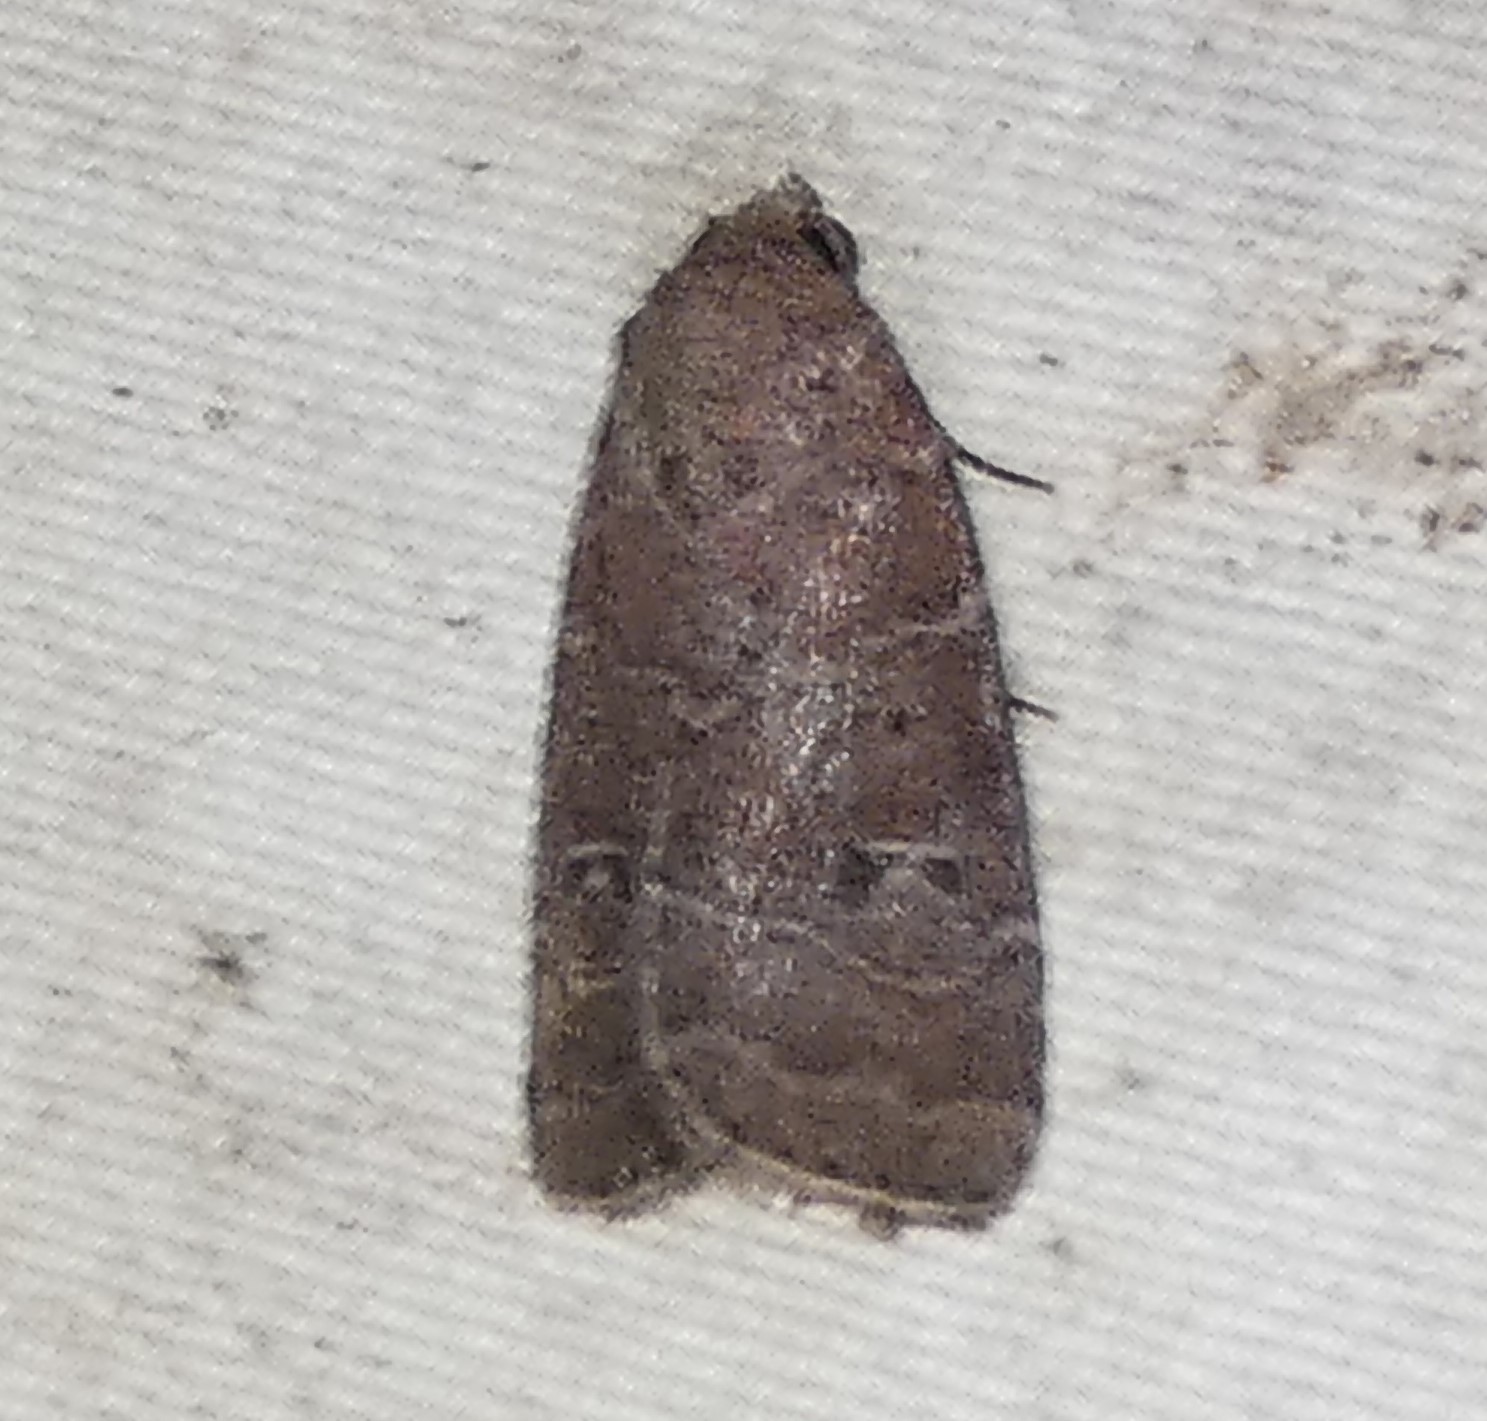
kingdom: Animalia
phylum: Arthropoda
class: Insecta
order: Lepidoptera
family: Noctuidae
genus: Elaphria
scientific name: Elaphria grata
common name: Grateful midget moth
